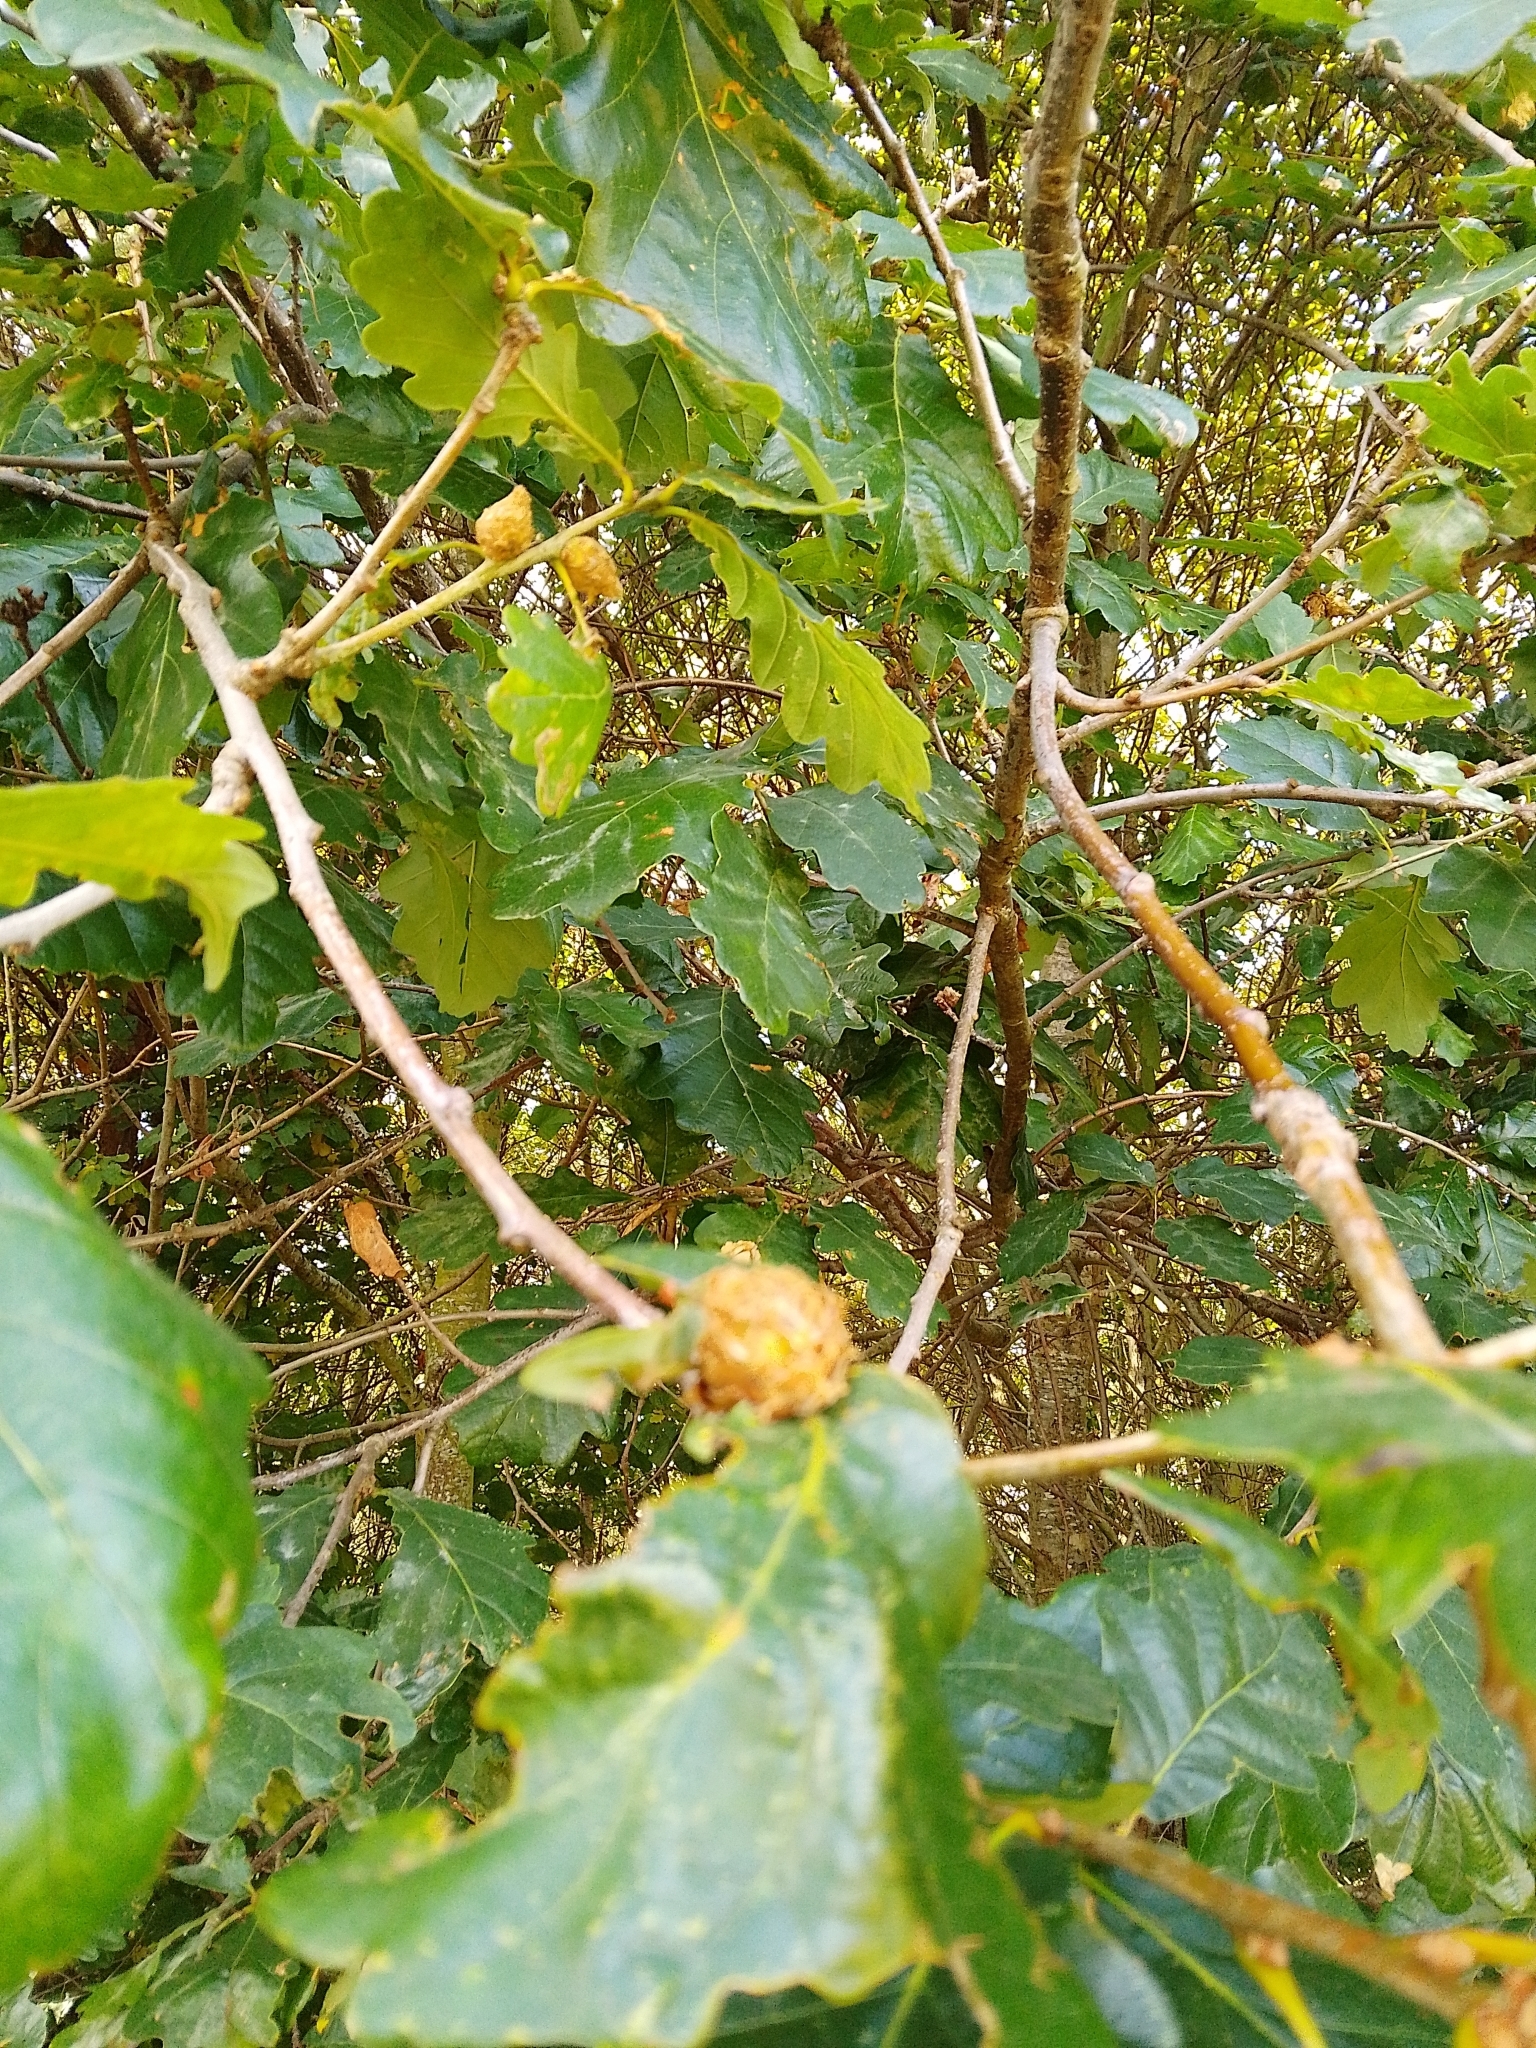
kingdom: Animalia
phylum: Arthropoda
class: Insecta
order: Hymenoptera
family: Cynipidae
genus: Andricus
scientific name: Andricus foecundatrix
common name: Artichoke gall
